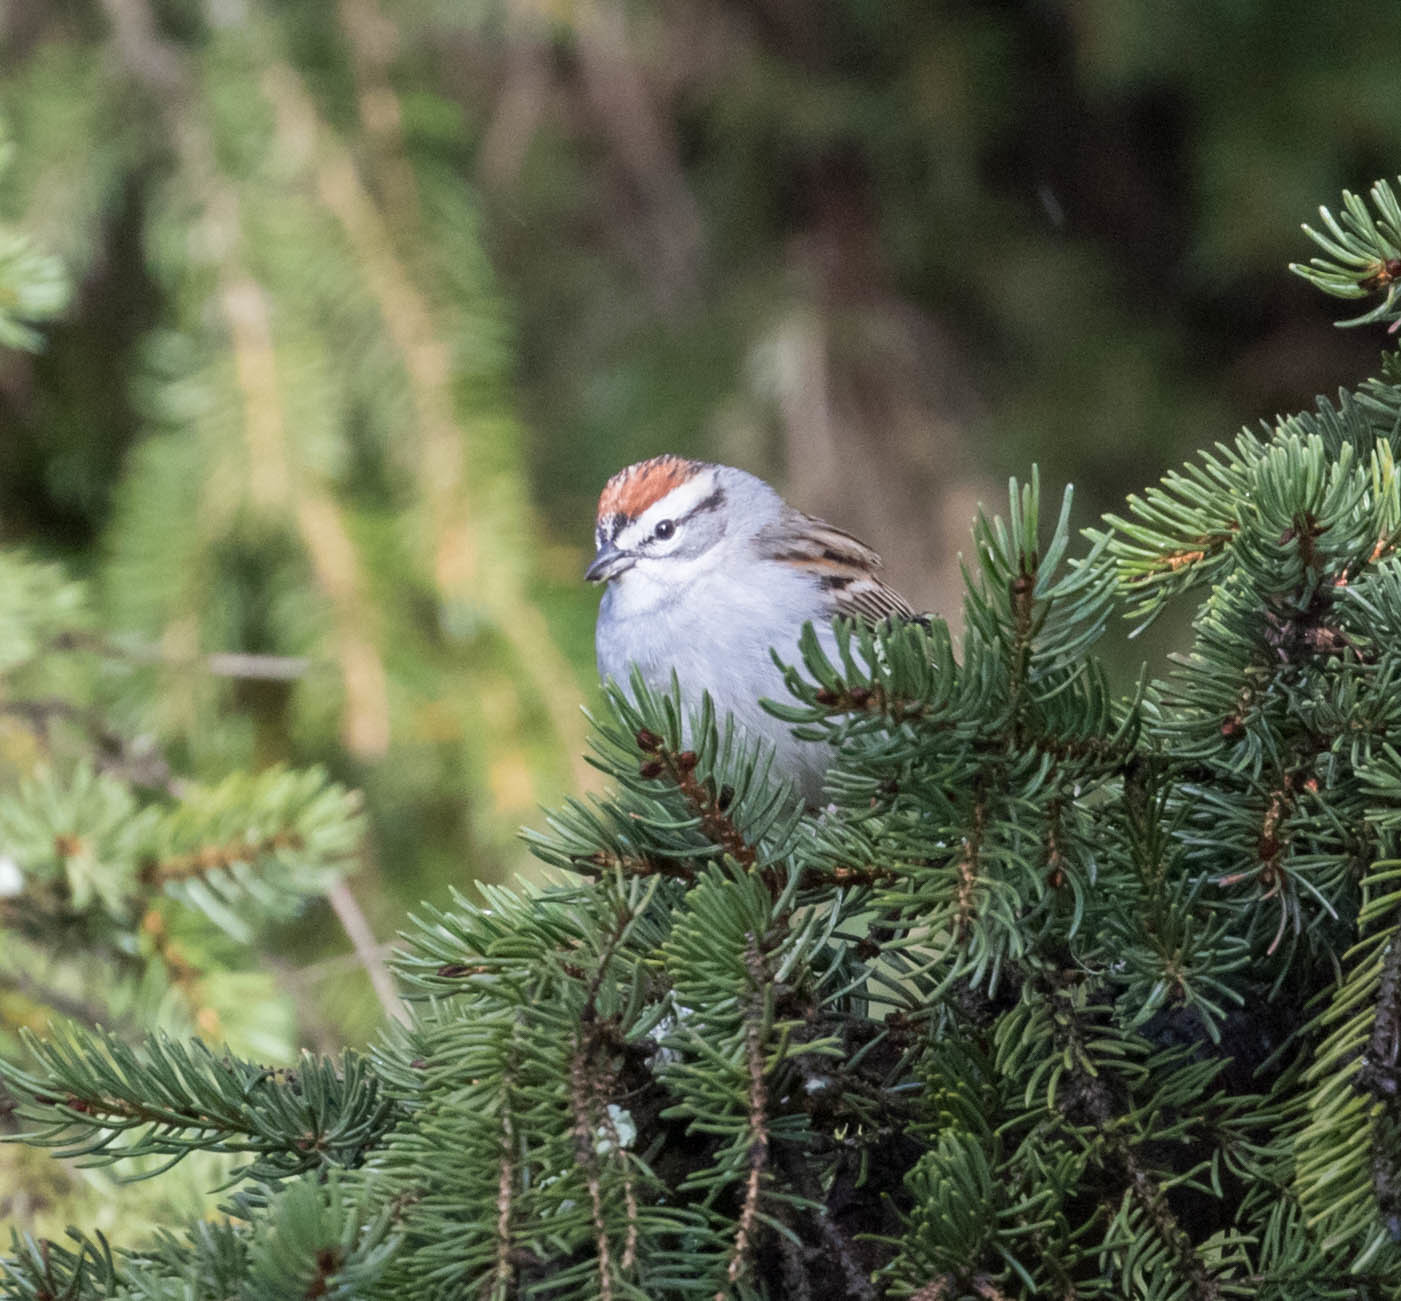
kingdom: Animalia
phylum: Chordata
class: Aves
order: Passeriformes
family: Passerellidae
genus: Spizella
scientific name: Spizella passerina
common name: Chipping sparrow
